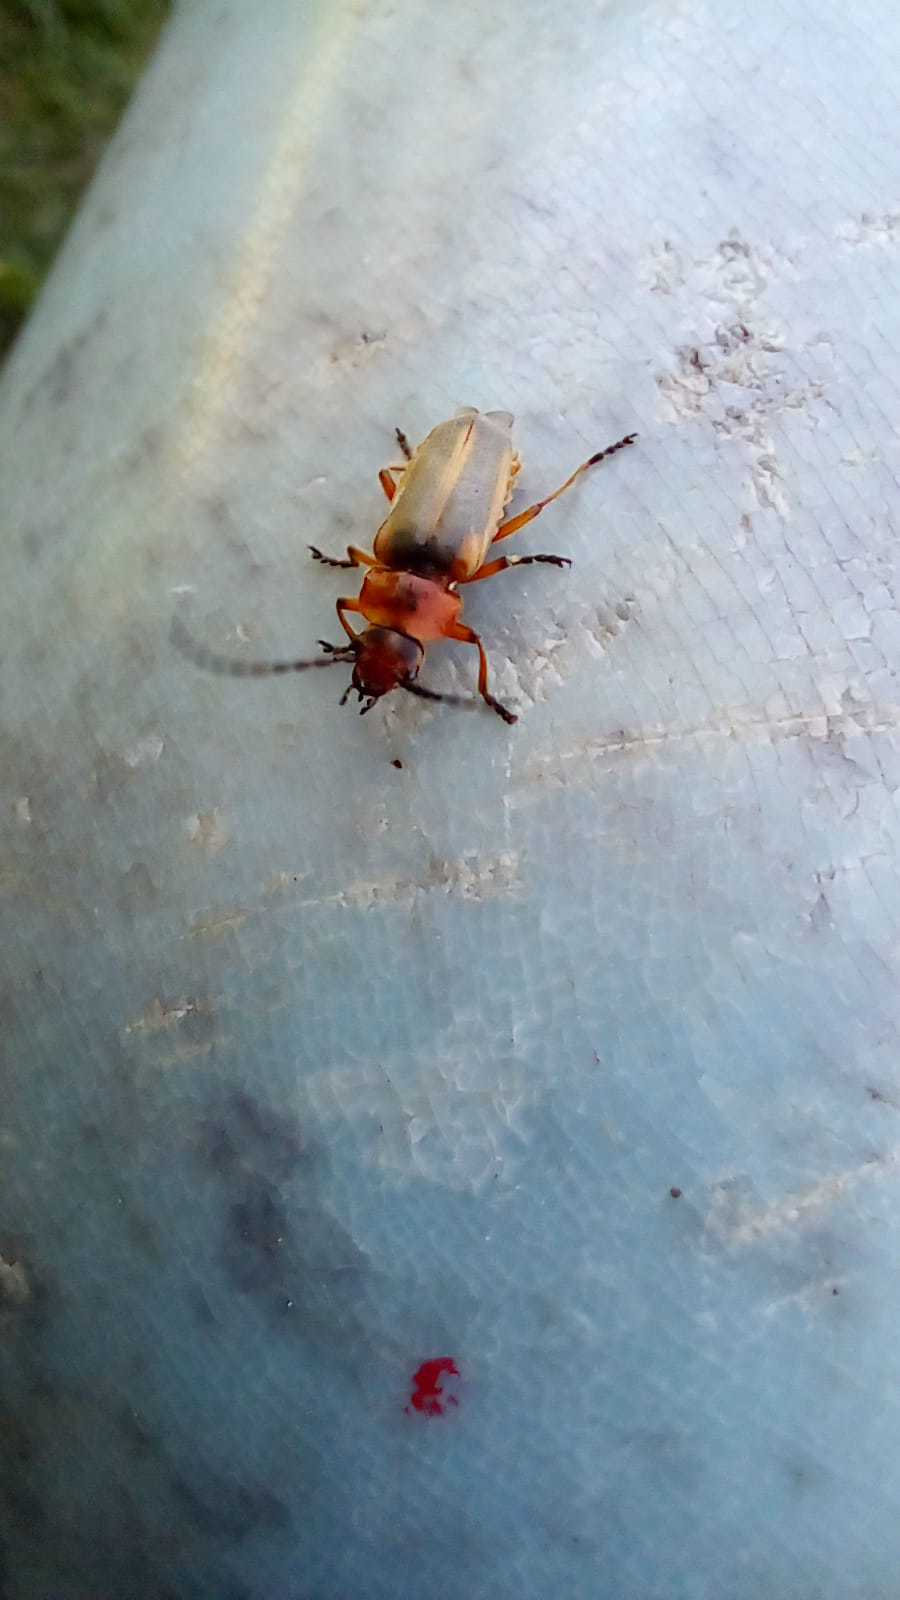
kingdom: Animalia
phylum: Arthropoda
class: Insecta
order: Coleoptera
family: Cantharidae
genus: Discodon
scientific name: Discodon
